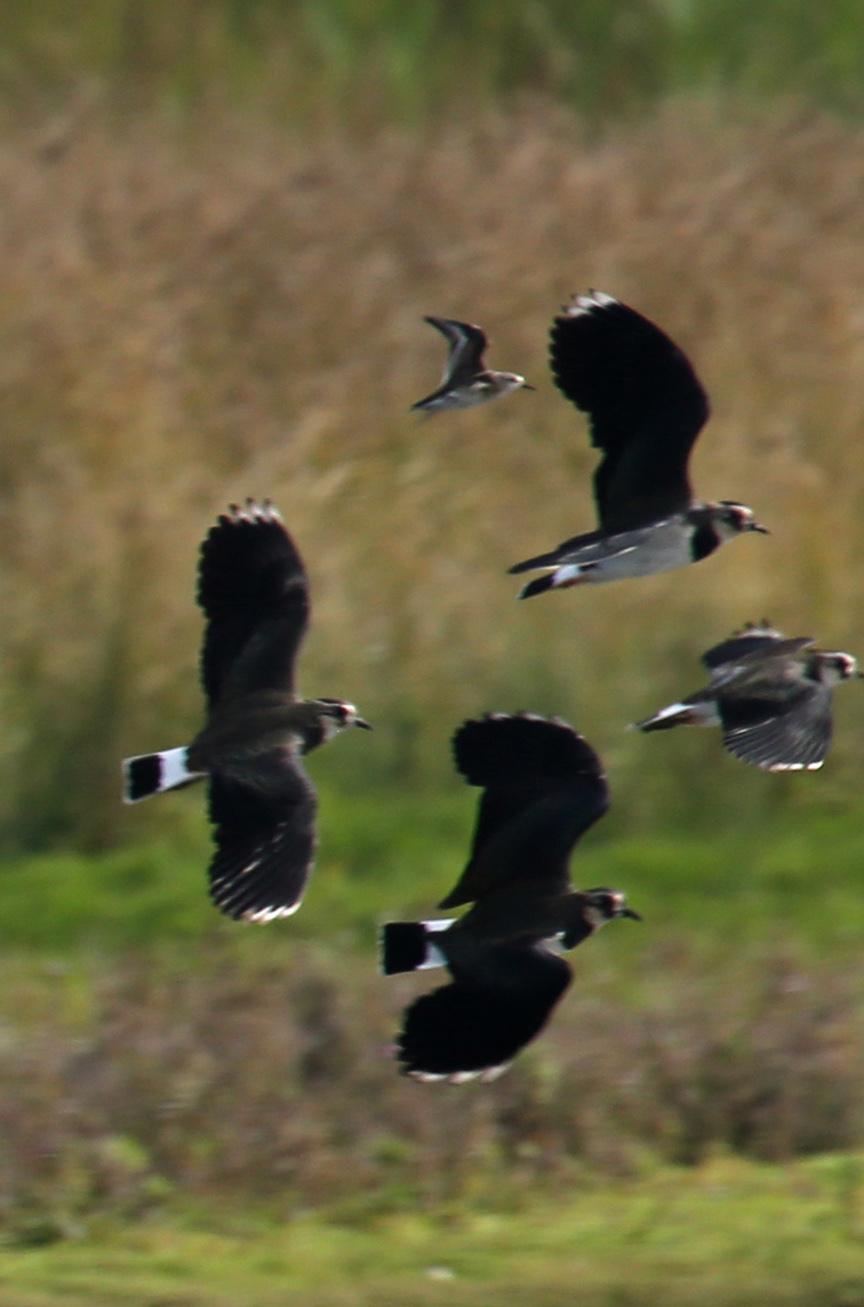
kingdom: Animalia
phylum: Chordata
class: Aves
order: Charadriiformes
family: Scolopacidae
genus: Calidris
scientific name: Calidris minuta
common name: Little stint
